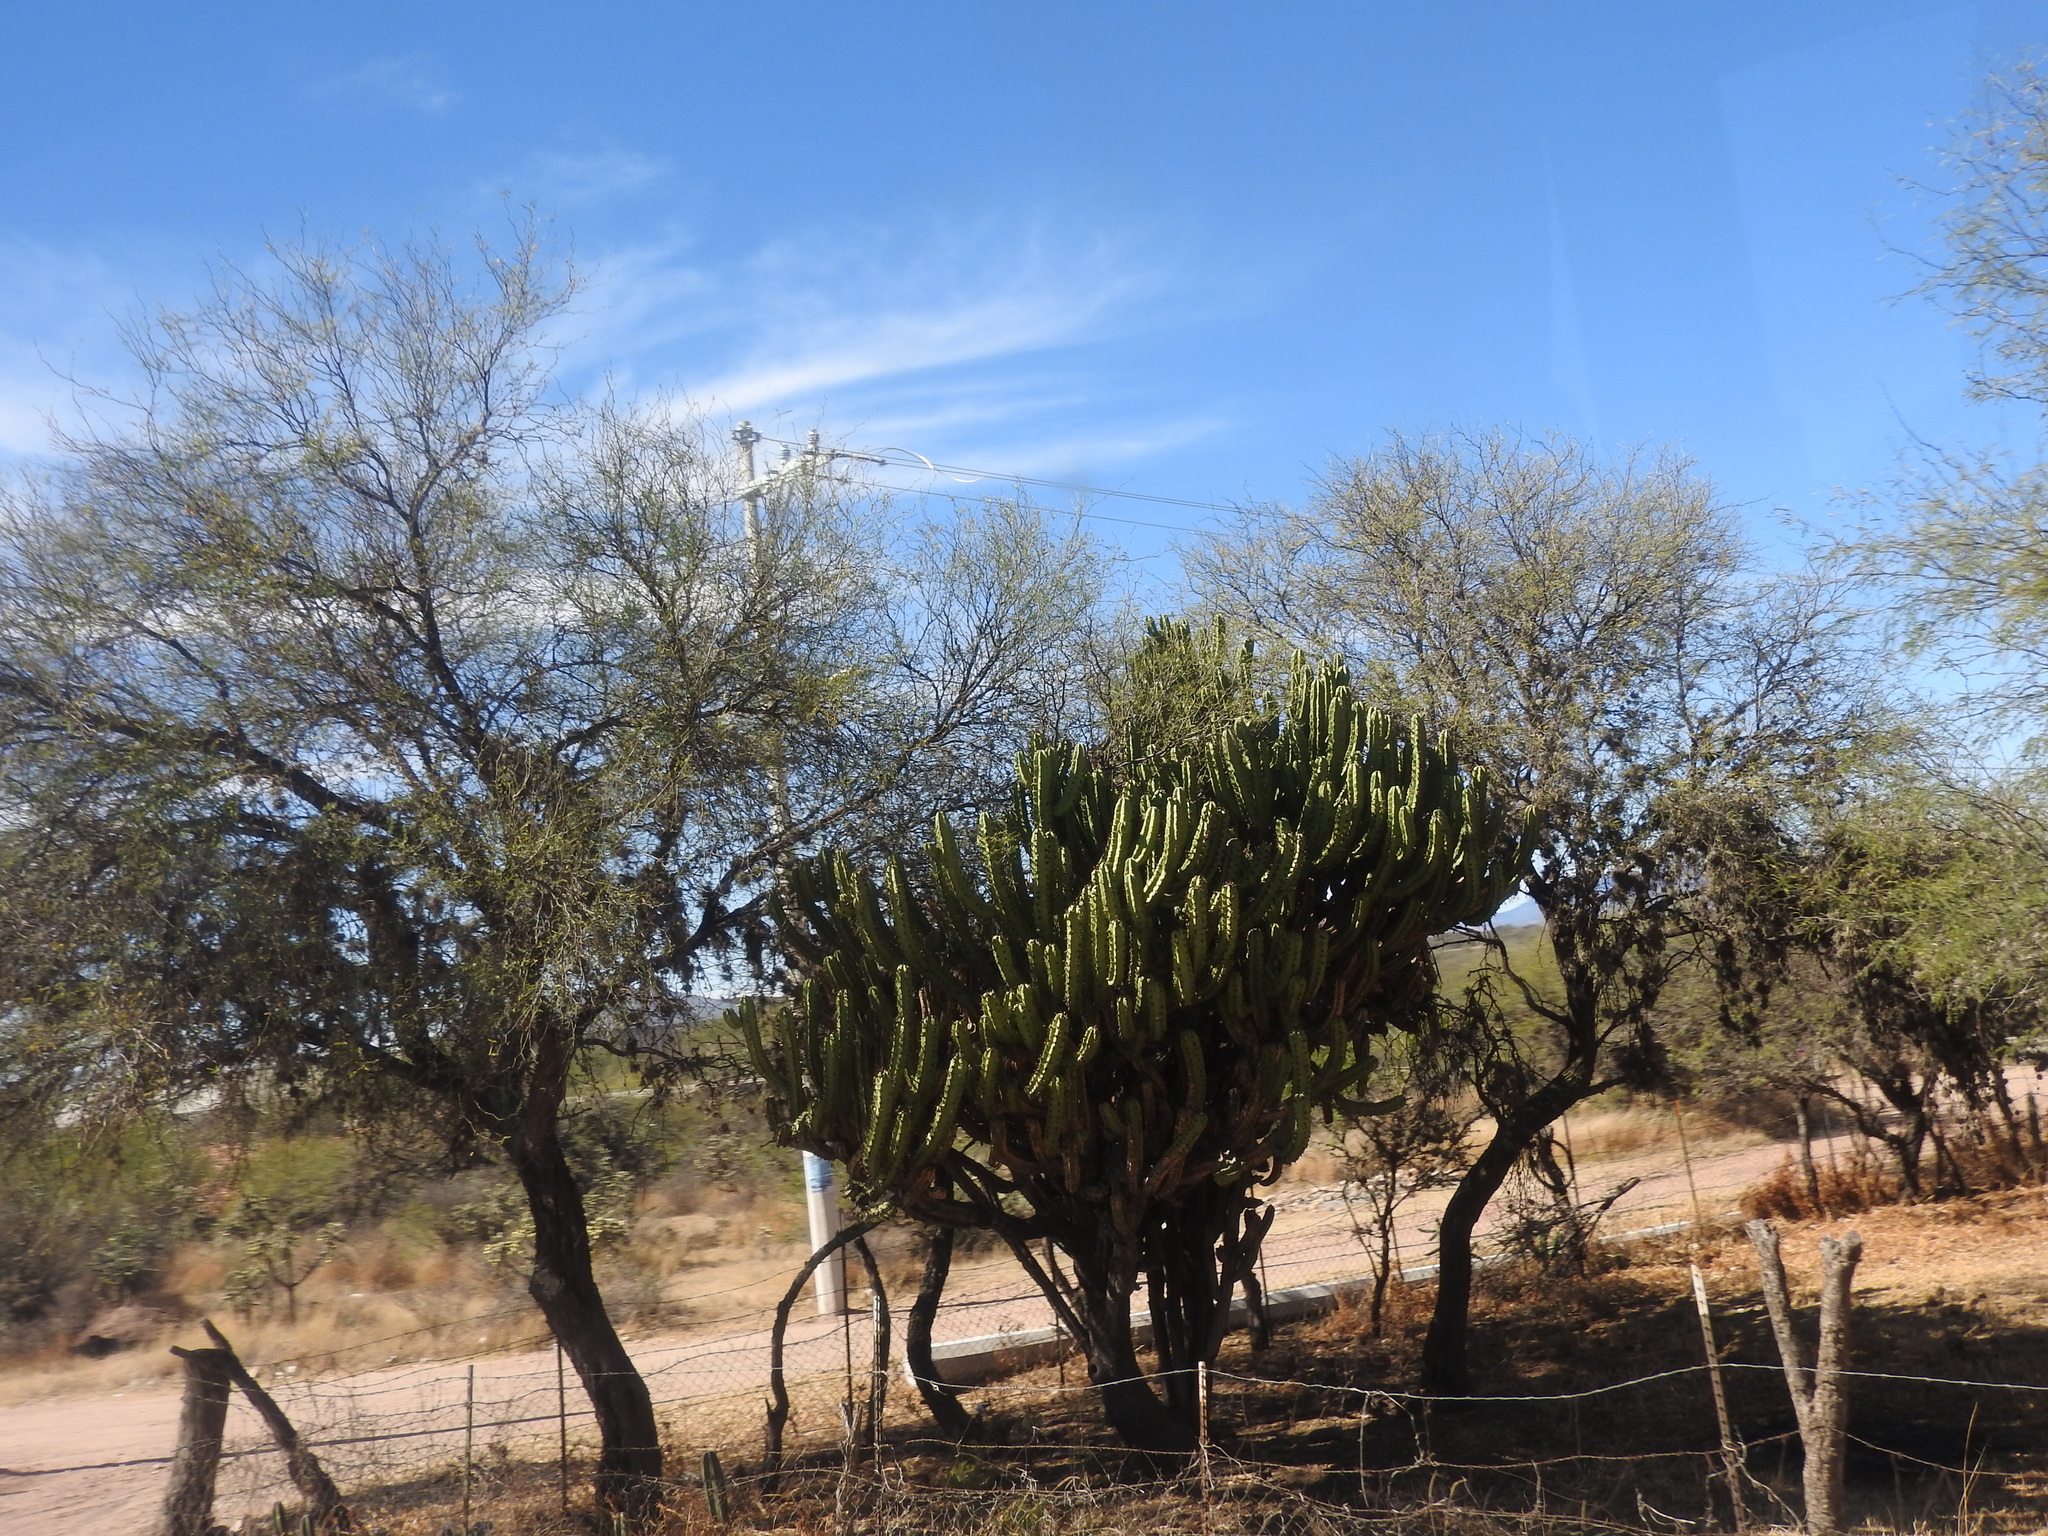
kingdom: Plantae
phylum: Tracheophyta
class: Magnoliopsida
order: Caryophyllales
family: Cactaceae
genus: Myrtillocactus
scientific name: Myrtillocactus geometrizans
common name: Bilberry cactus
